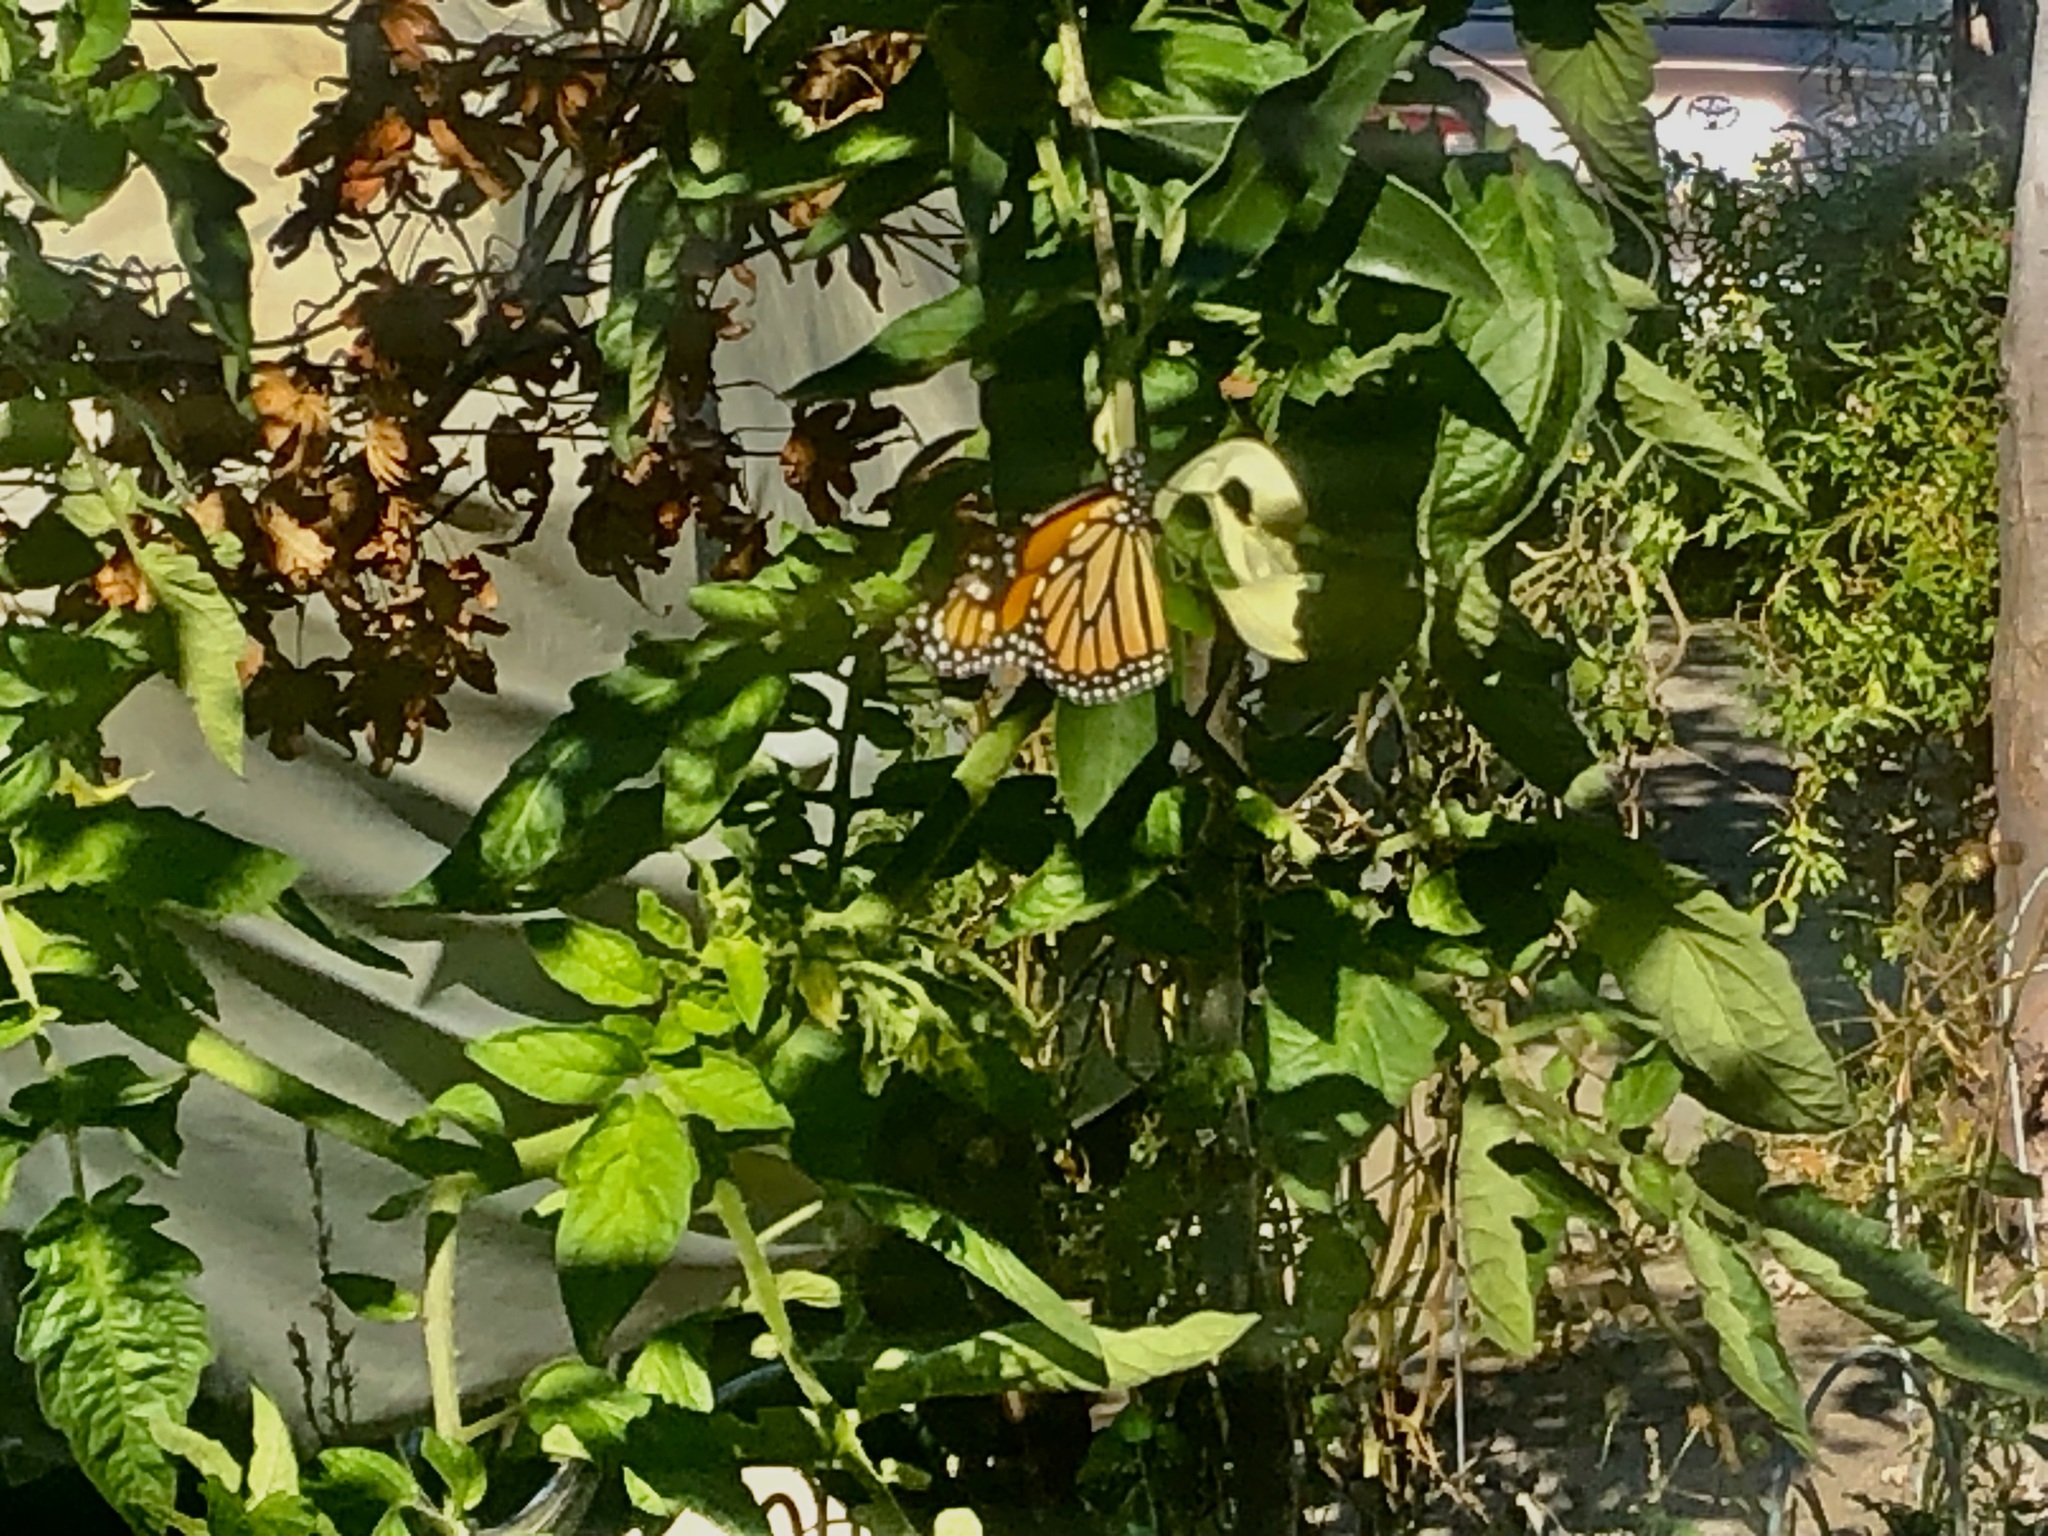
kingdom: Animalia
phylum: Arthropoda
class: Insecta
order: Lepidoptera
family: Nymphalidae
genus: Danaus
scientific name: Danaus plexippus
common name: Monarch
